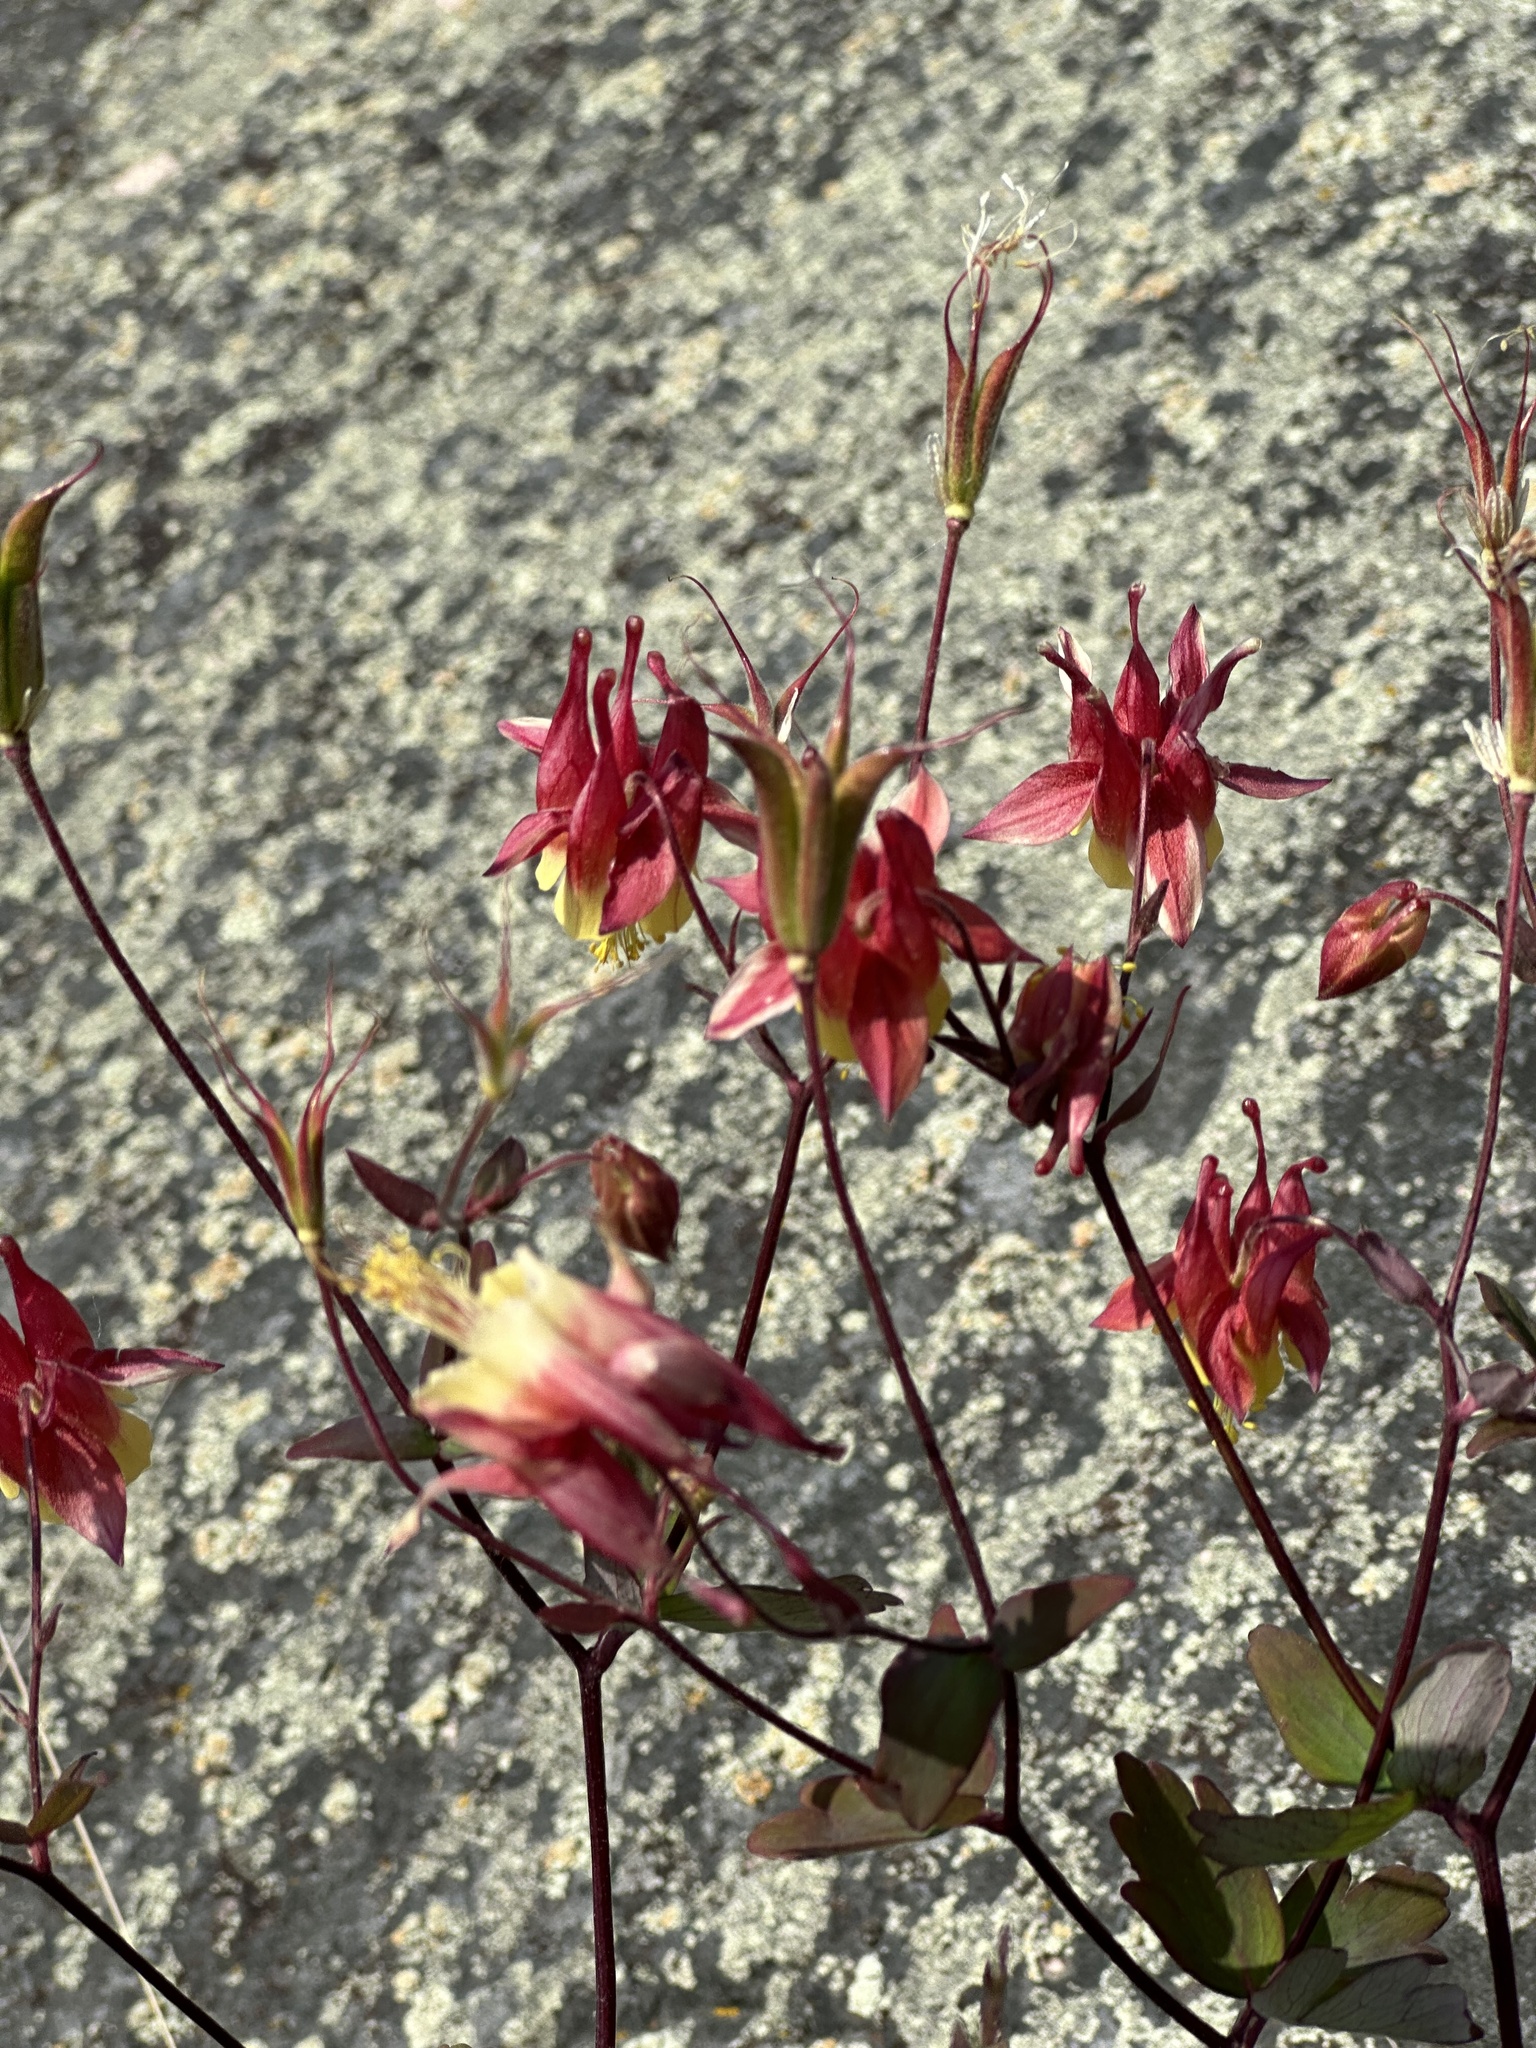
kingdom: Plantae
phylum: Tracheophyta
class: Magnoliopsida
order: Ranunculales
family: Ranunculaceae
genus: Aquilegia
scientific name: Aquilegia canadensis
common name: American columbine
